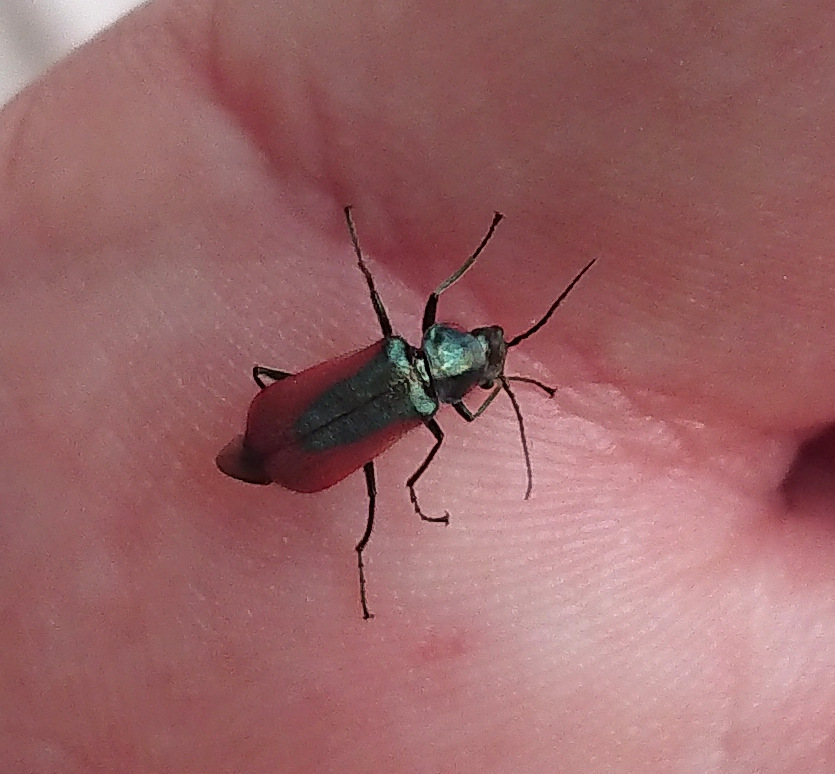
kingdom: Animalia
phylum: Arthropoda
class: Insecta
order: Coleoptera
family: Melyridae
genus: Malachius
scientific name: Malachius aeneus
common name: Scarlet malachite beetle
